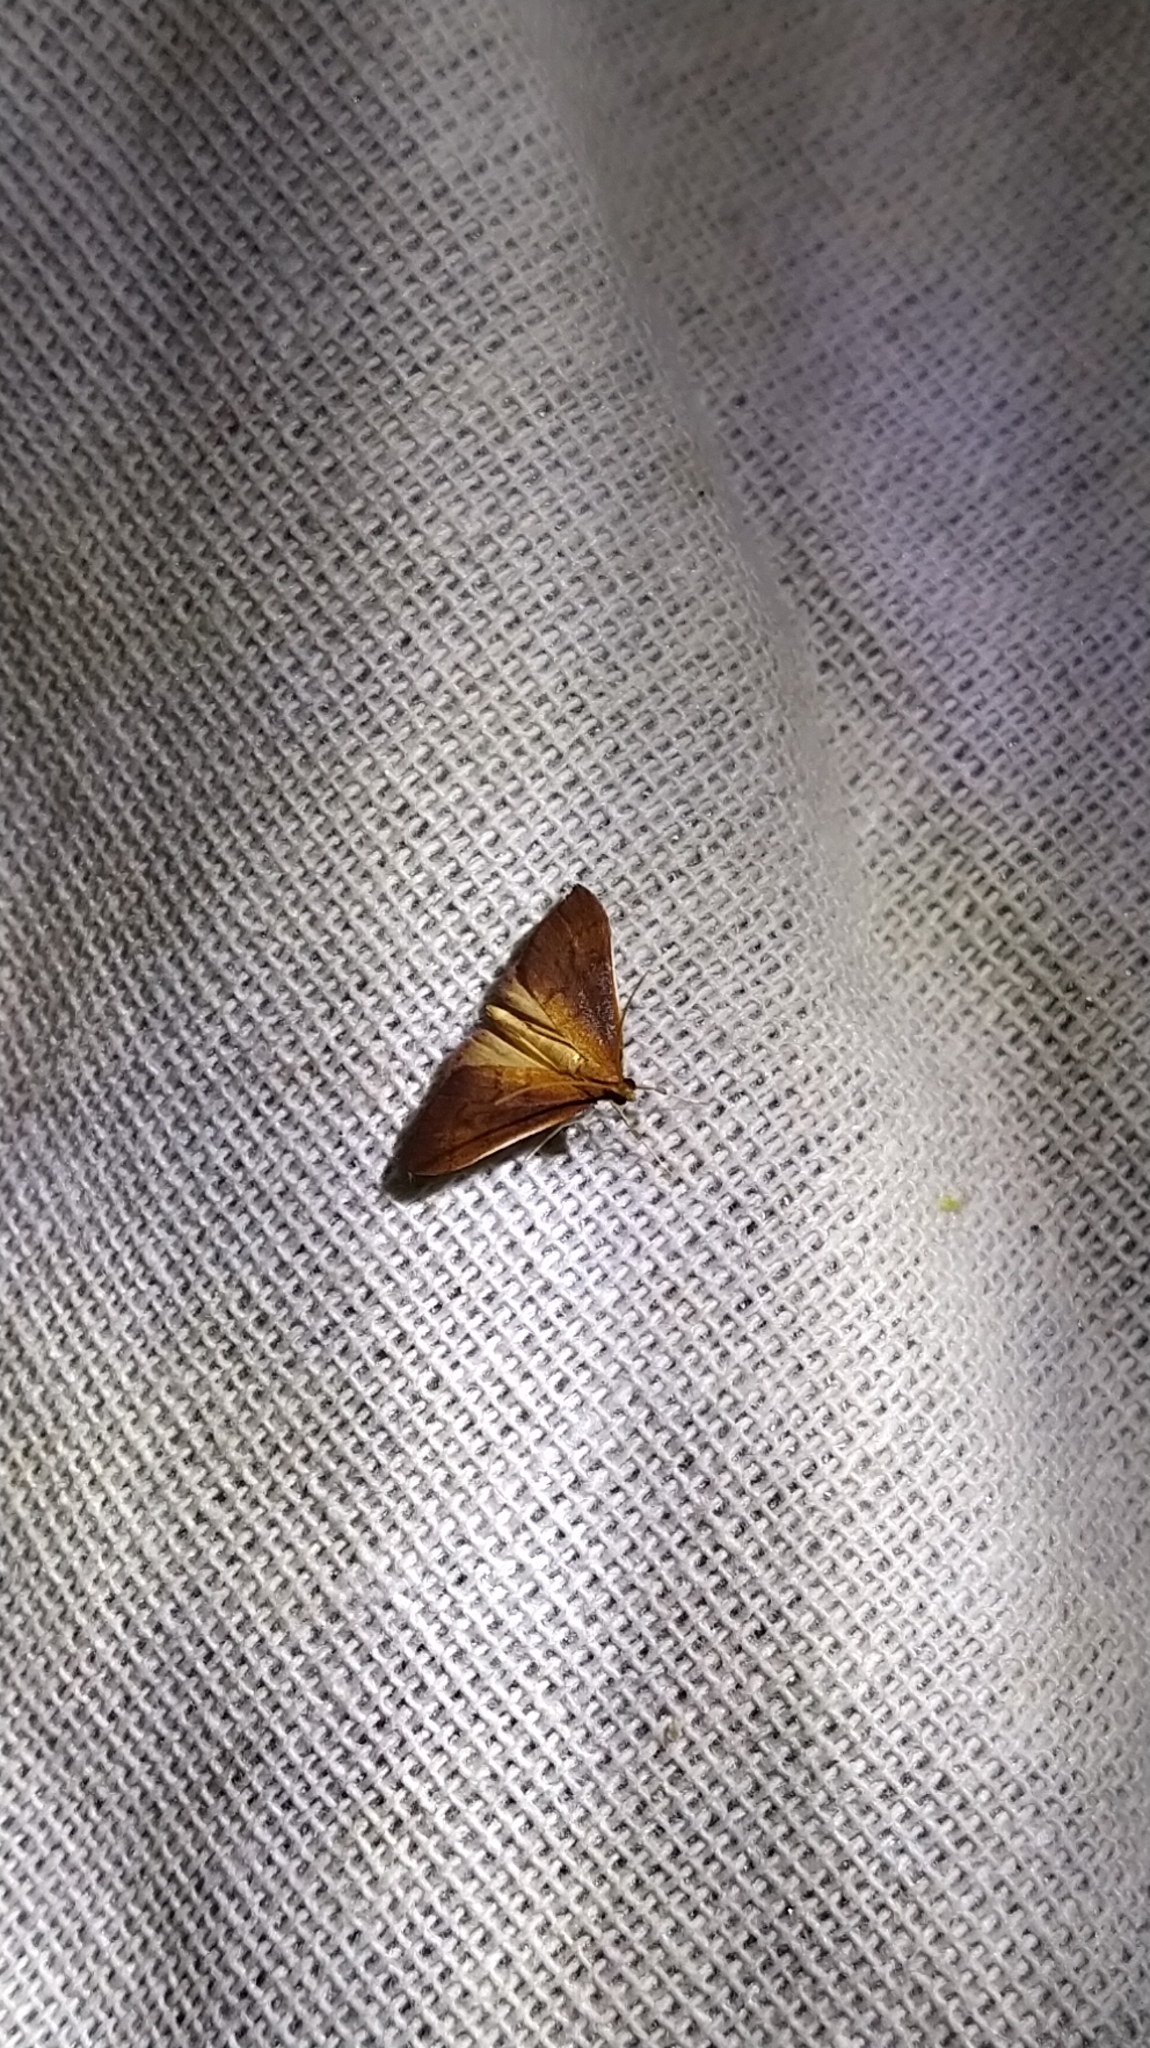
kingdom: Animalia
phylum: Arthropoda
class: Insecta
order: Lepidoptera
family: Crambidae
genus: Udea
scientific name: Udea daiclesalis
